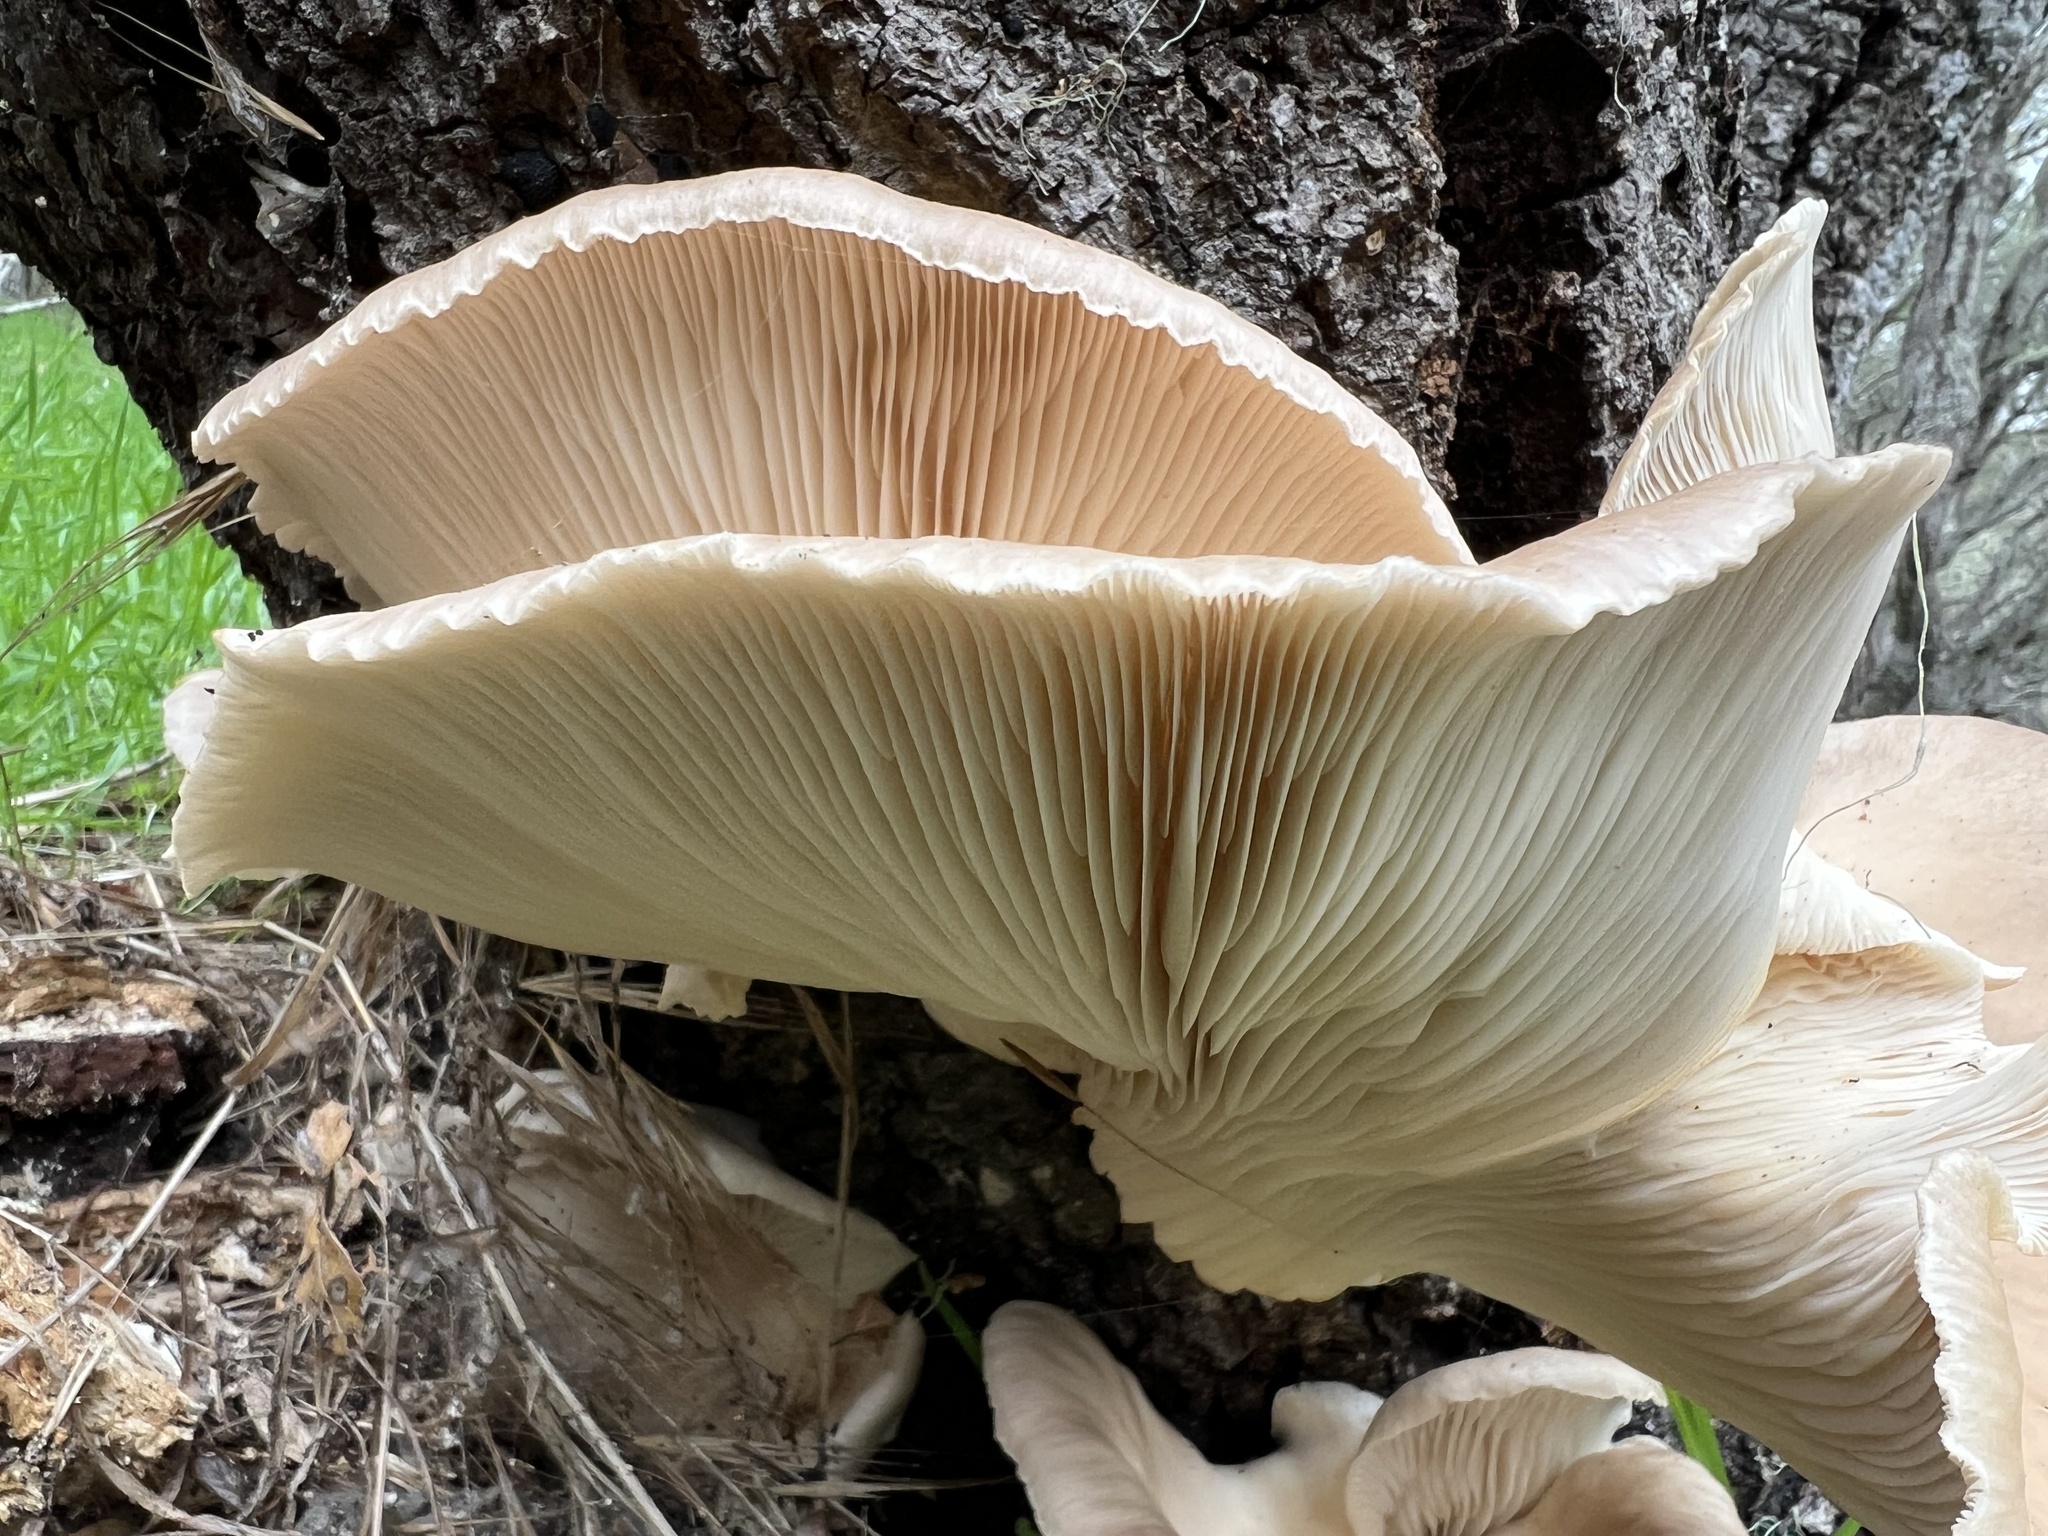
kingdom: Fungi
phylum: Basidiomycota
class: Agaricomycetes
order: Agaricales
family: Pleurotaceae
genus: Pleurotus
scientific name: Pleurotus ostreatus
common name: Oyster mushroom
